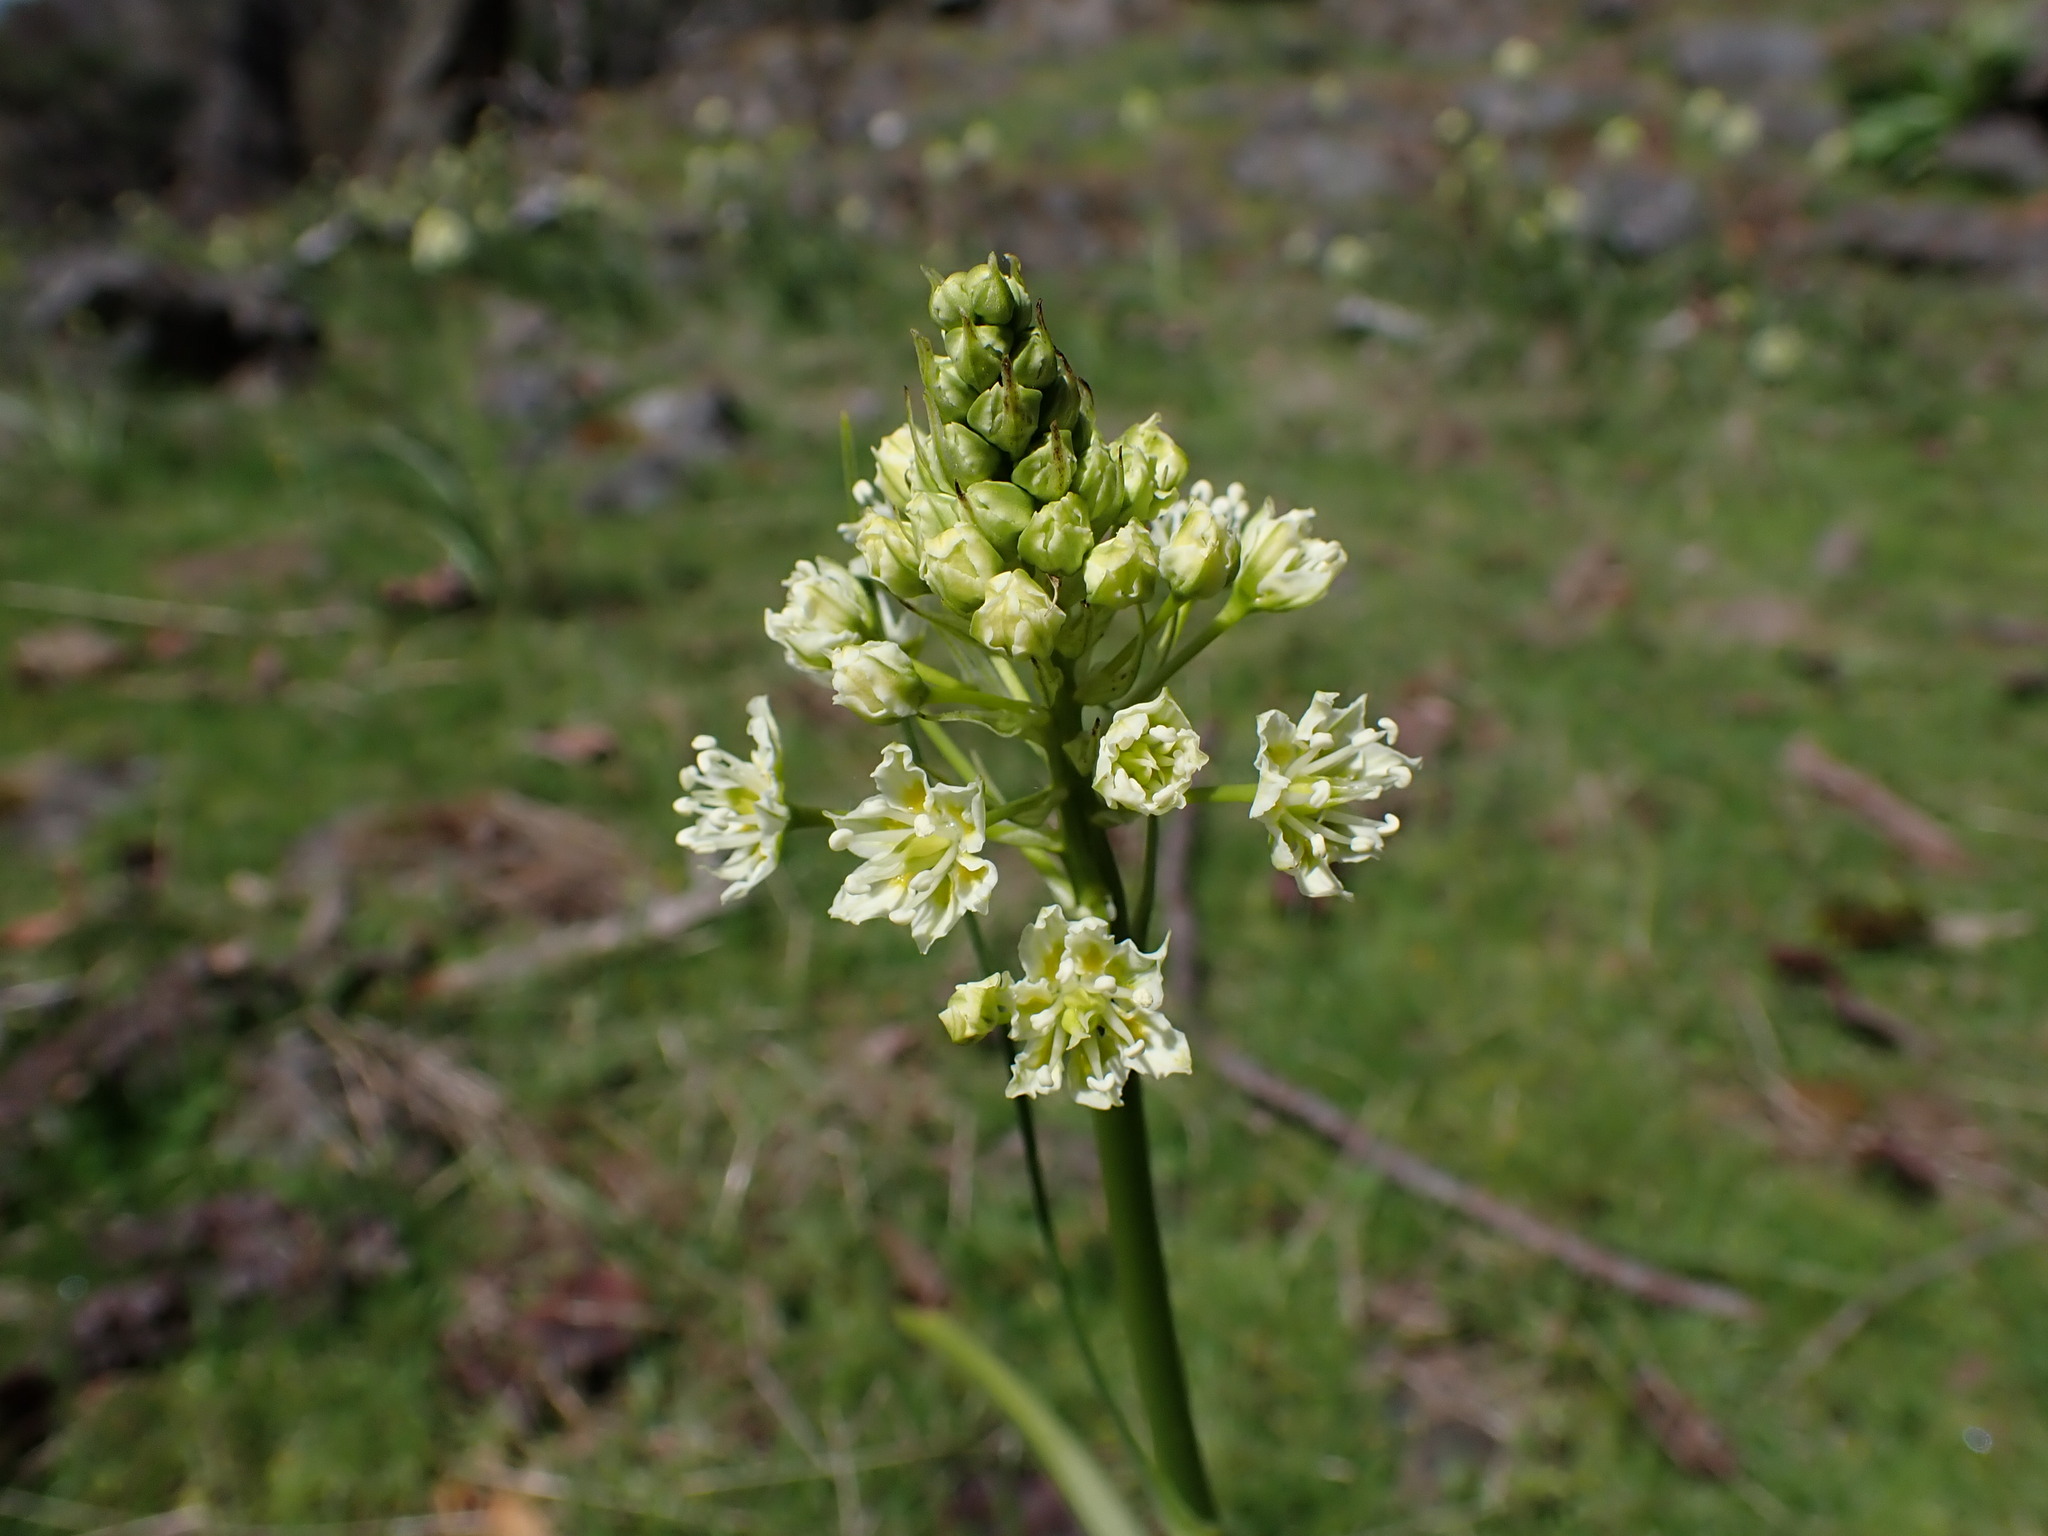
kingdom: Plantae
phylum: Tracheophyta
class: Liliopsida
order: Liliales
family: Melanthiaceae
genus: Toxicoscordion
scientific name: Toxicoscordion venenosum
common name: Meadow death camas
